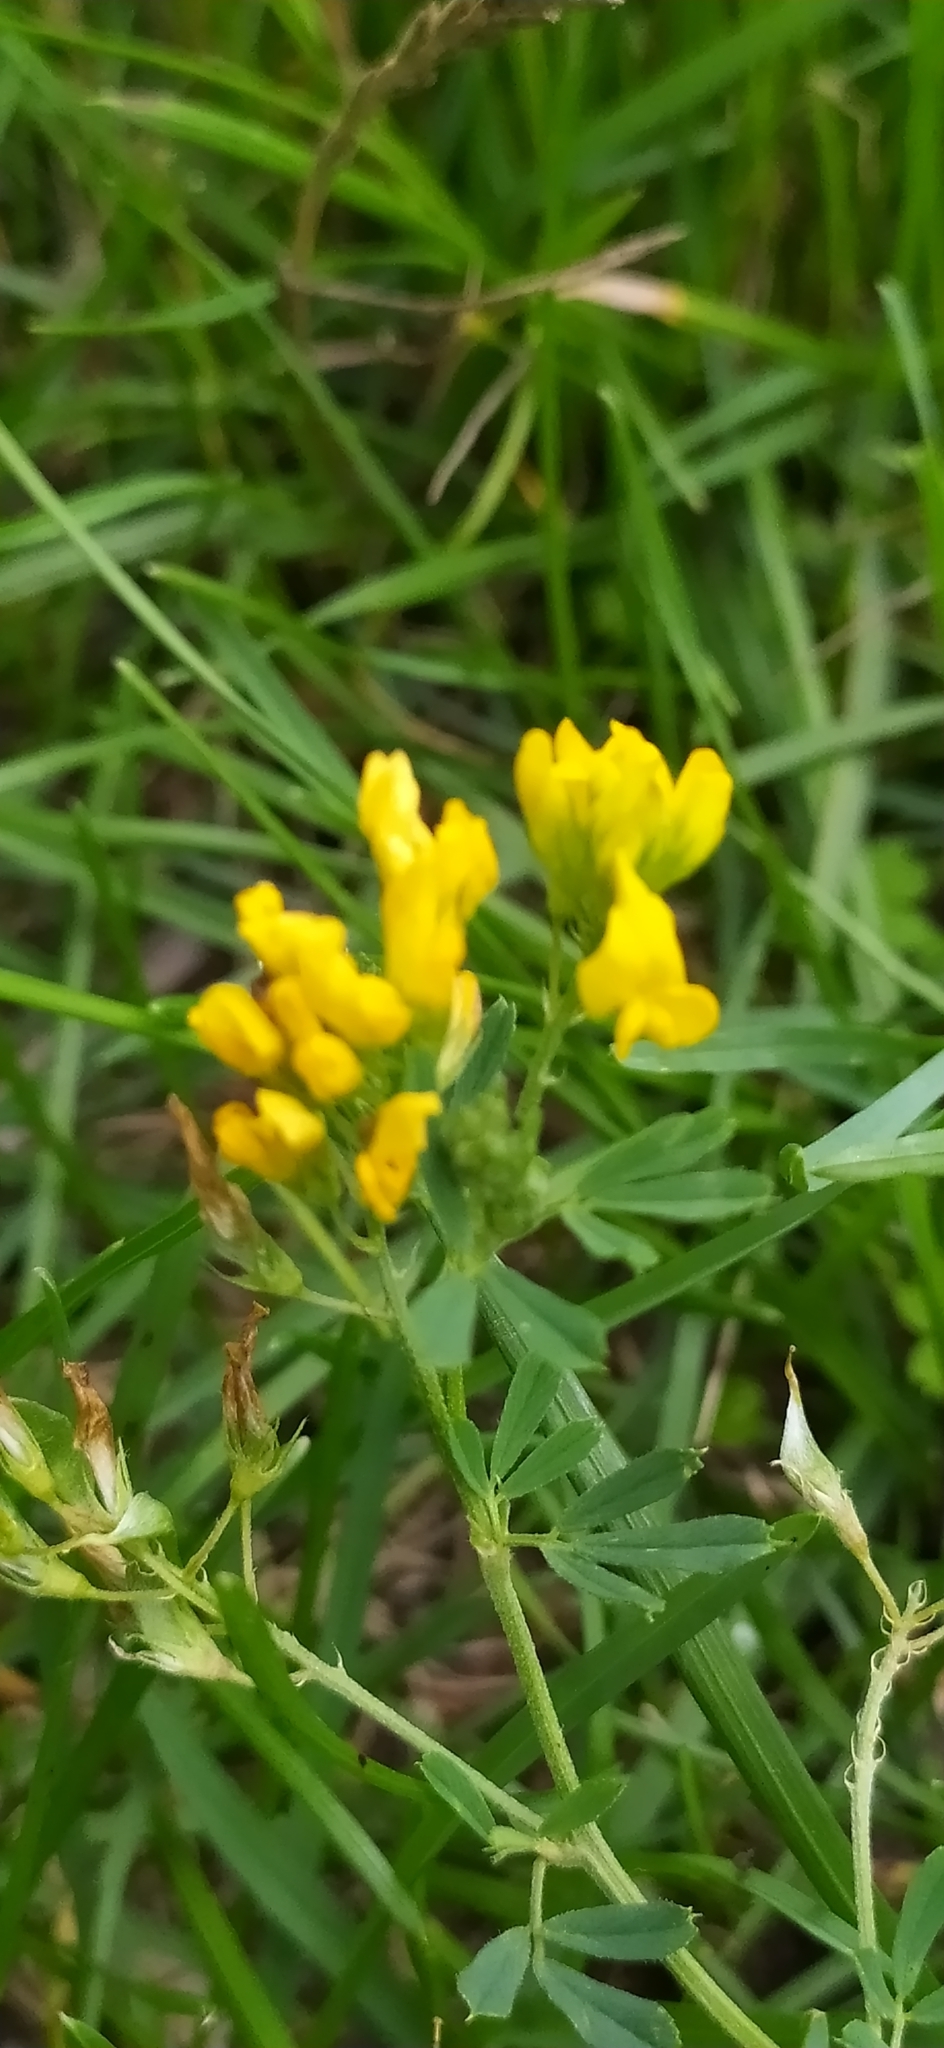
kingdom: Plantae
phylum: Tracheophyta
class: Magnoliopsida
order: Fabales
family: Fabaceae
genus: Medicago
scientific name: Medicago falcata
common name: Sickle medick
